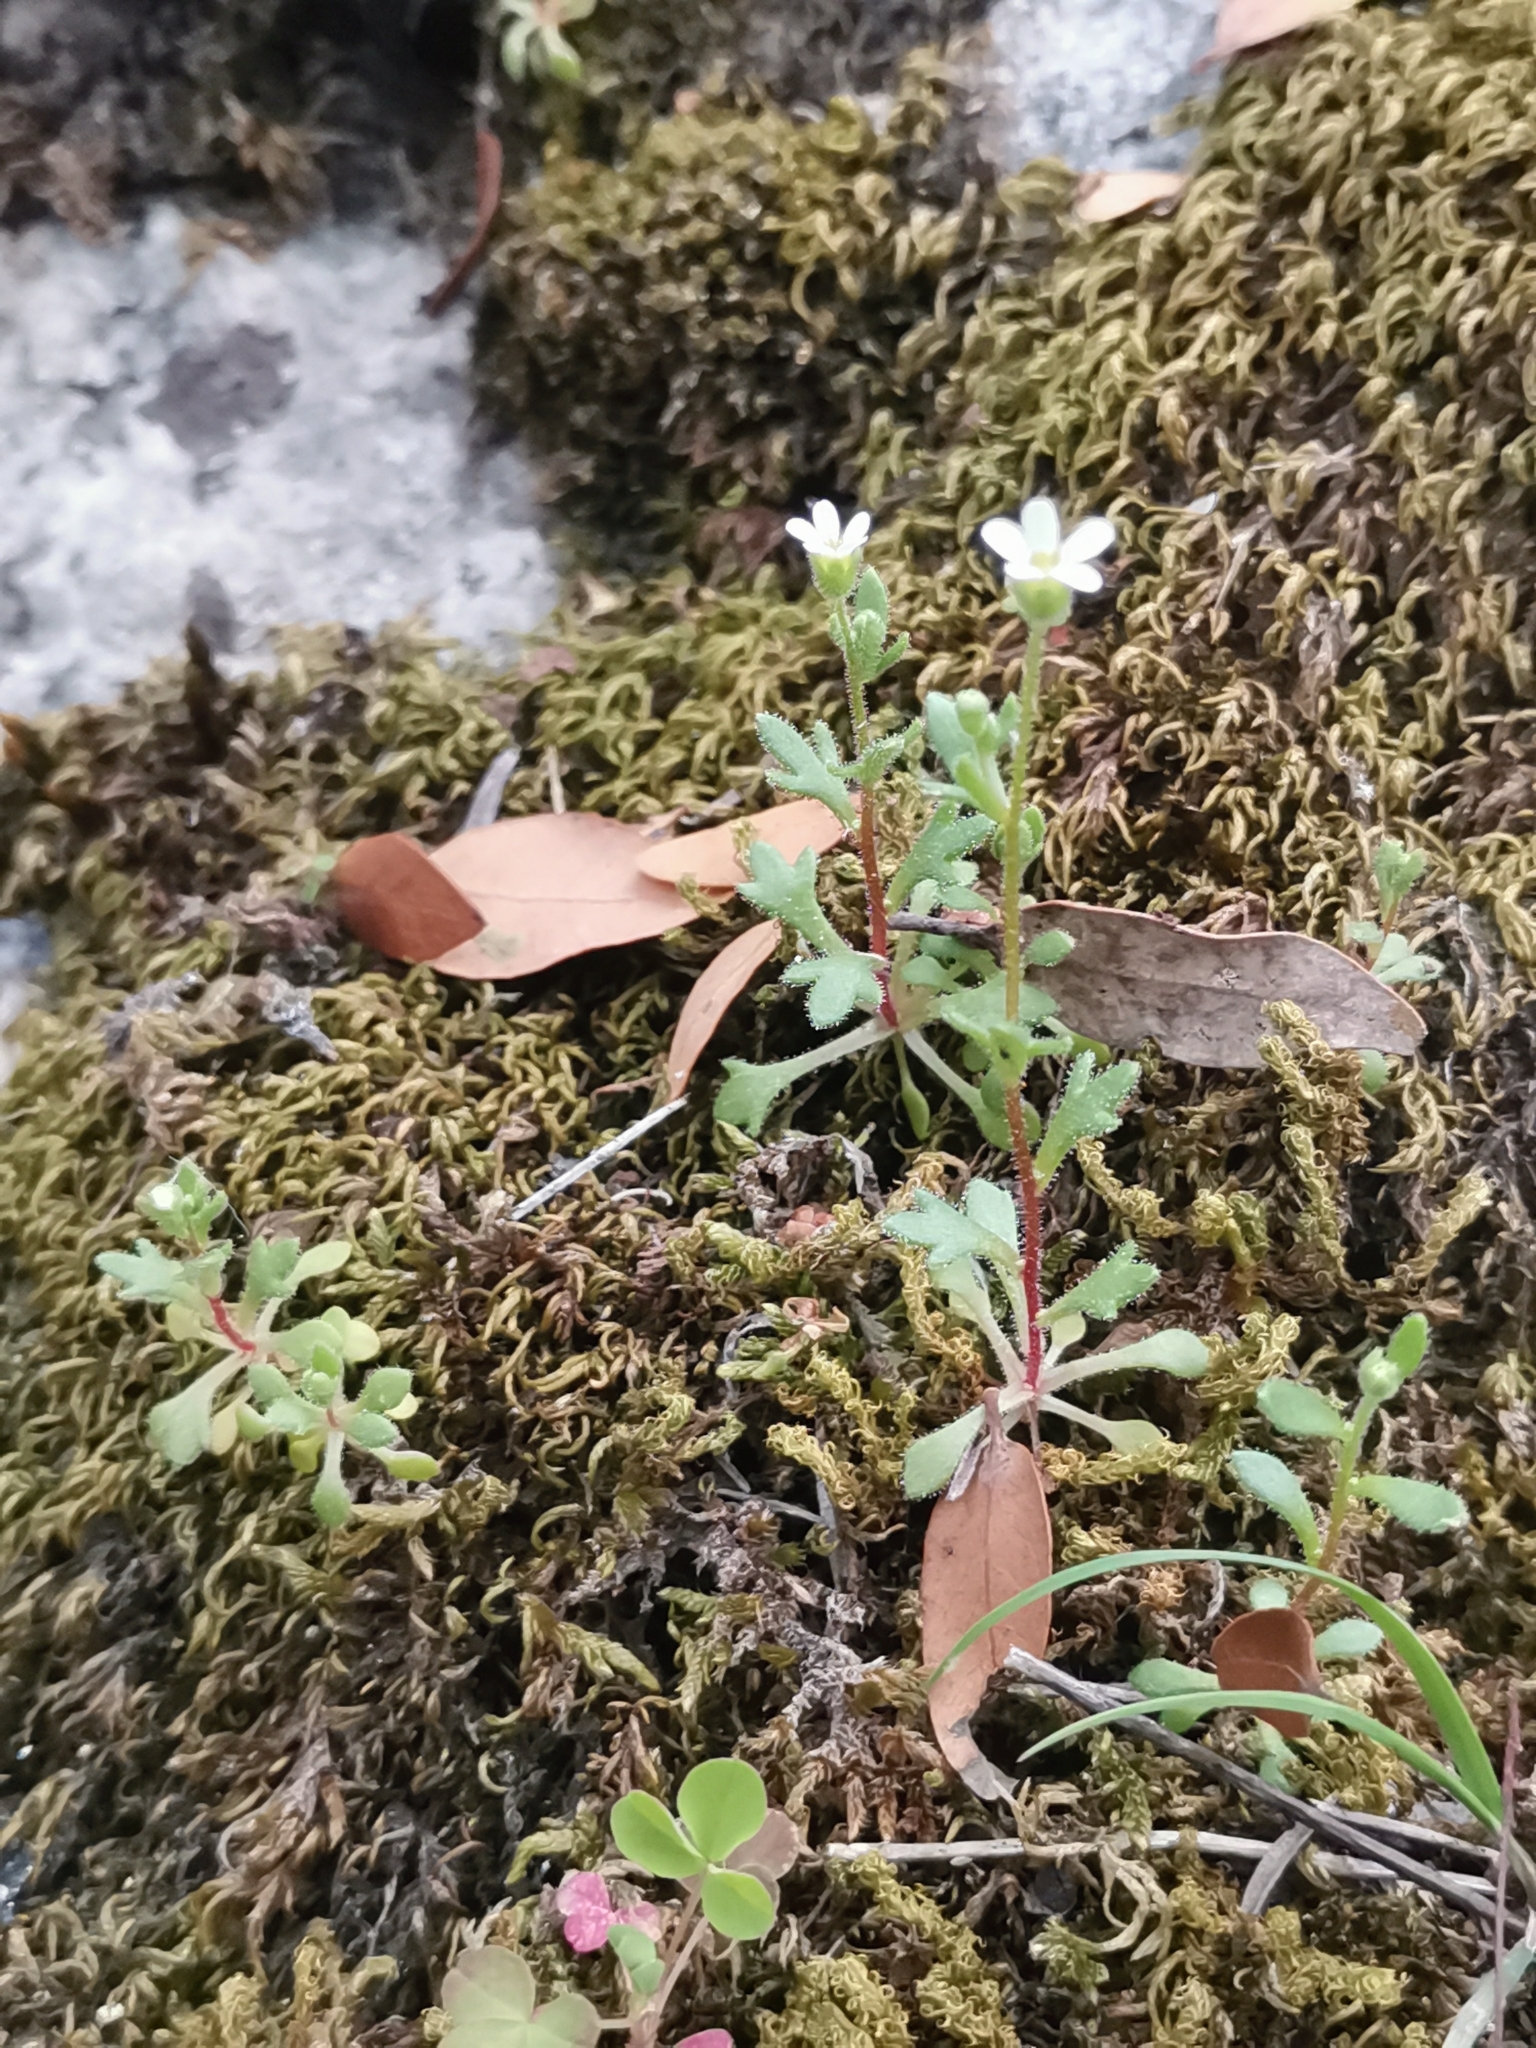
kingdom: Plantae
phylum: Tracheophyta
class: Magnoliopsida
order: Saxifragales
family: Saxifragaceae
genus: Saxifraga
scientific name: Saxifraga tridactylites
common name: Rue-leaved saxifrage
